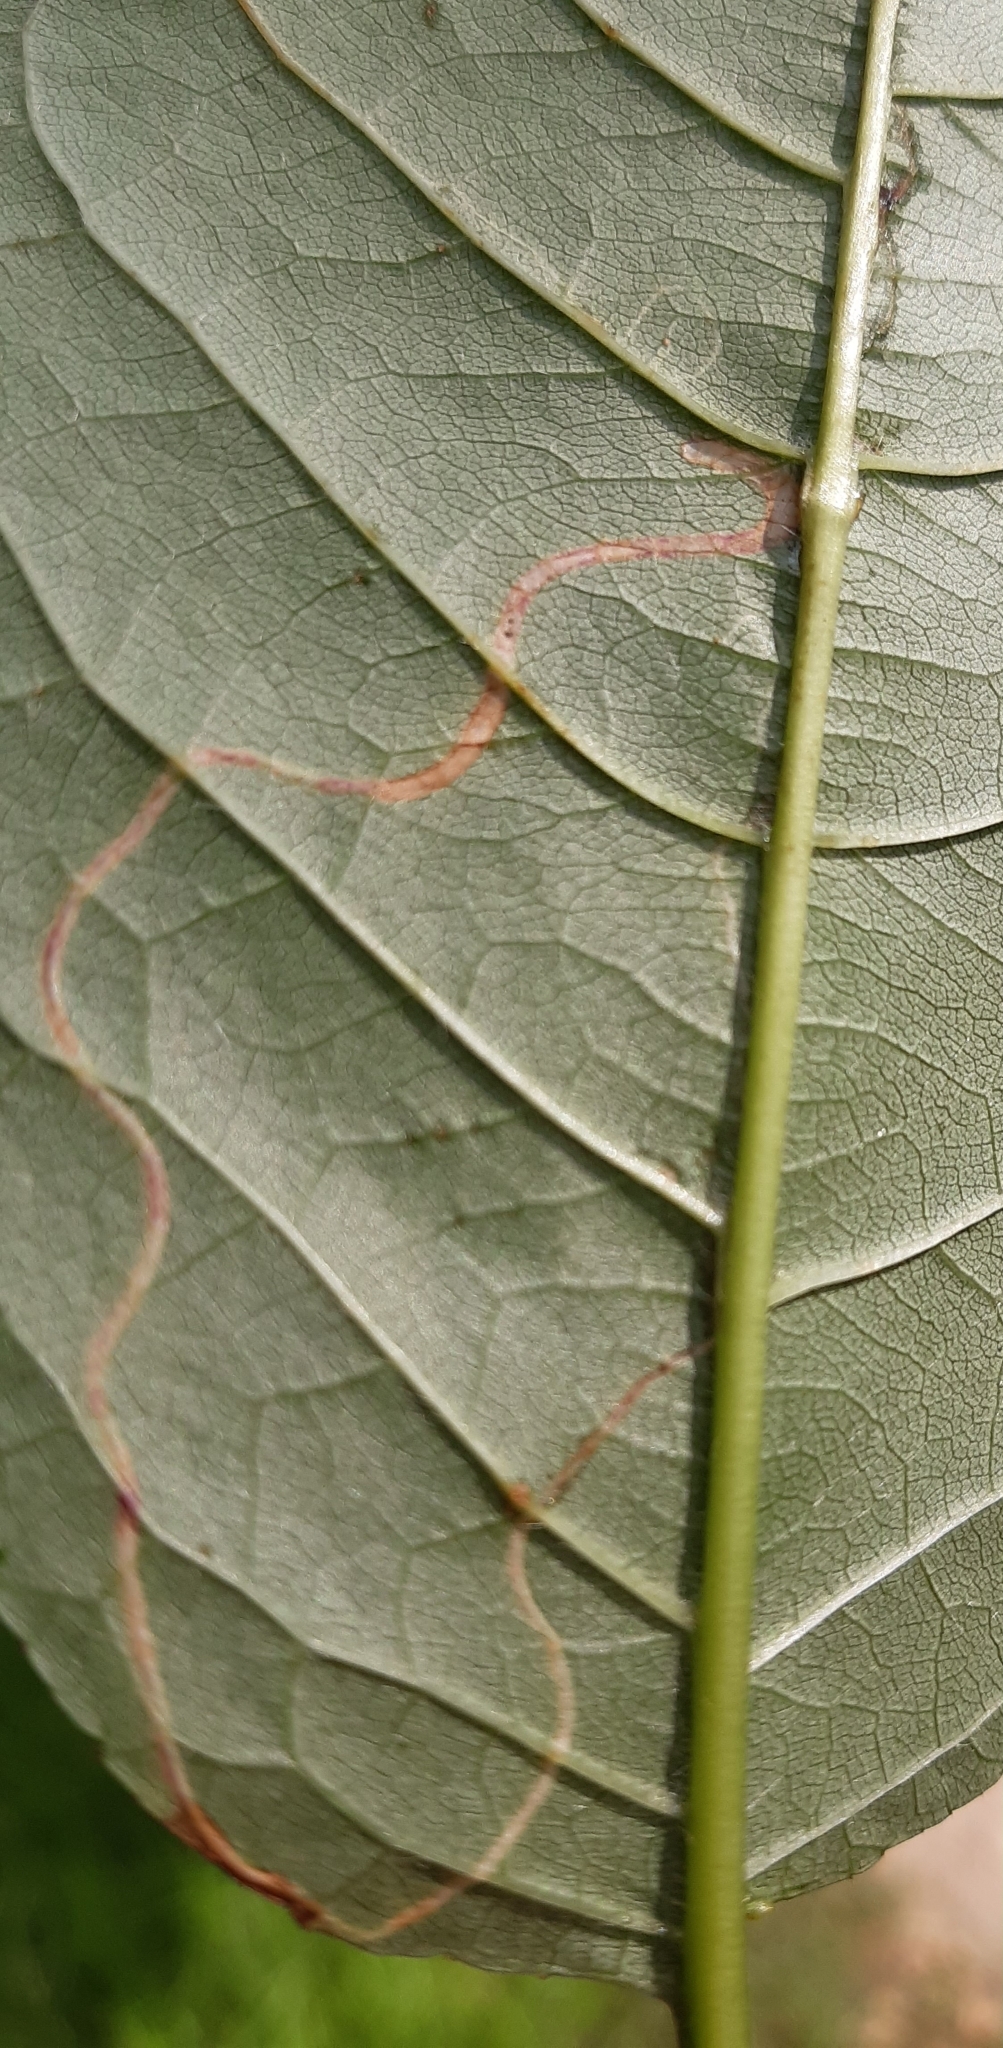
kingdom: Animalia
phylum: Arthropoda
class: Insecta
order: Lepidoptera
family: Lyonetiidae
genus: Lyonetia
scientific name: Lyonetia clerkella
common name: Apple leaf miner
